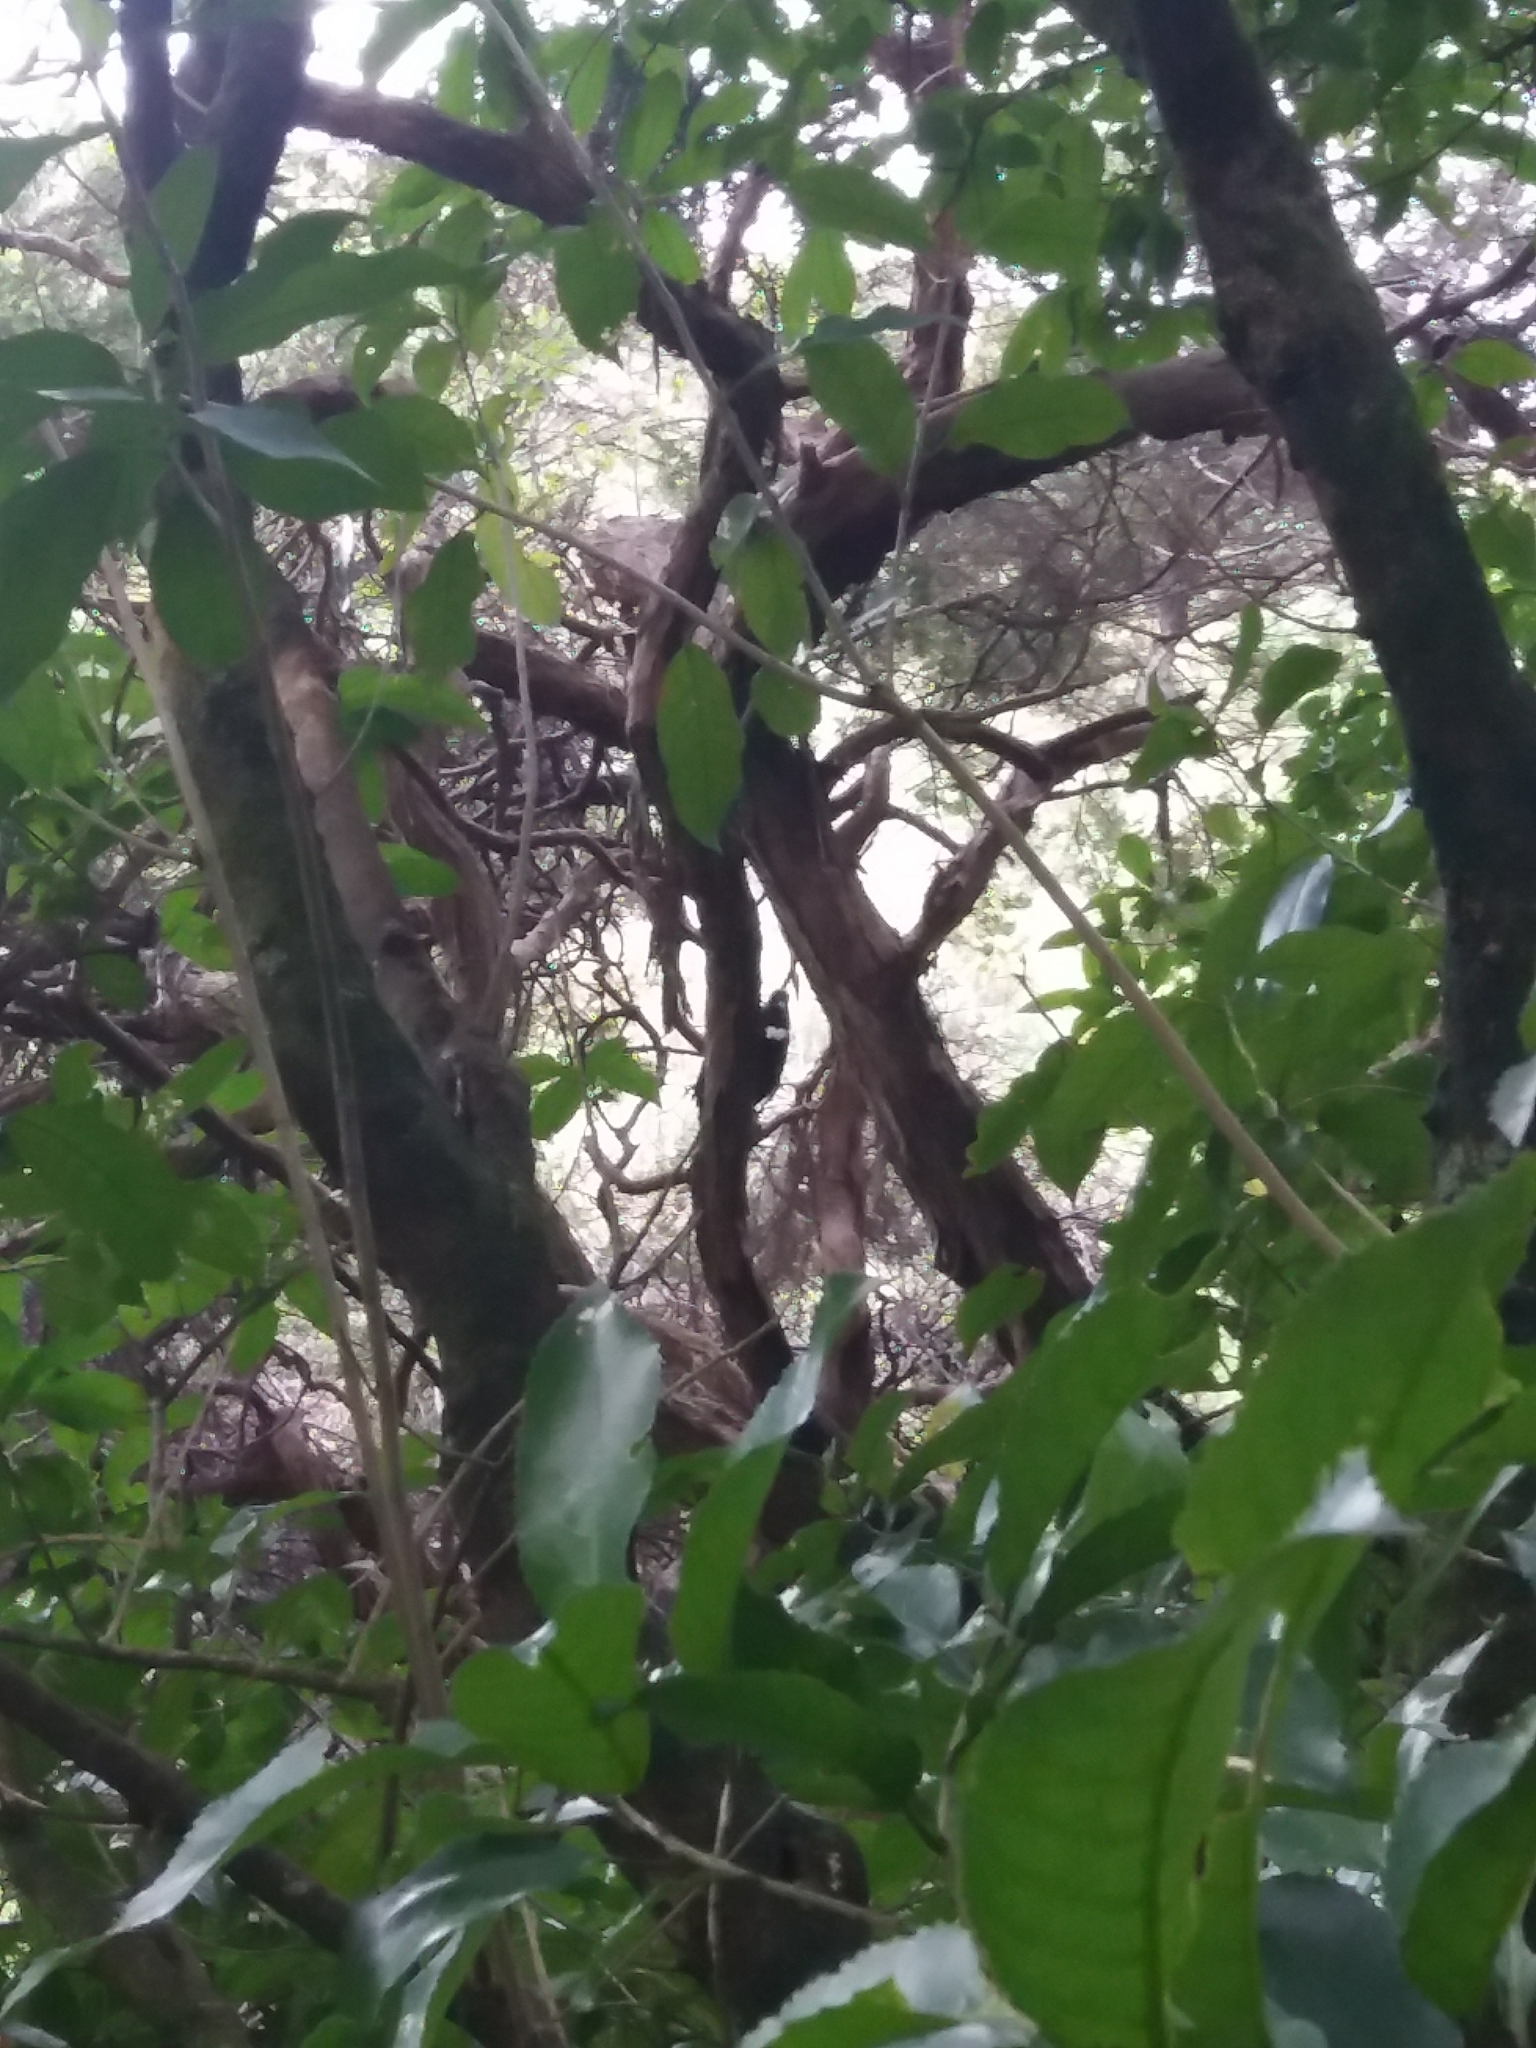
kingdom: Animalia
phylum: Chordata
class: Aves
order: Passeriformes
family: Meliphagidae
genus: Prosthemadera
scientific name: Prosthemadera novaeseelandiae
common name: Tui
